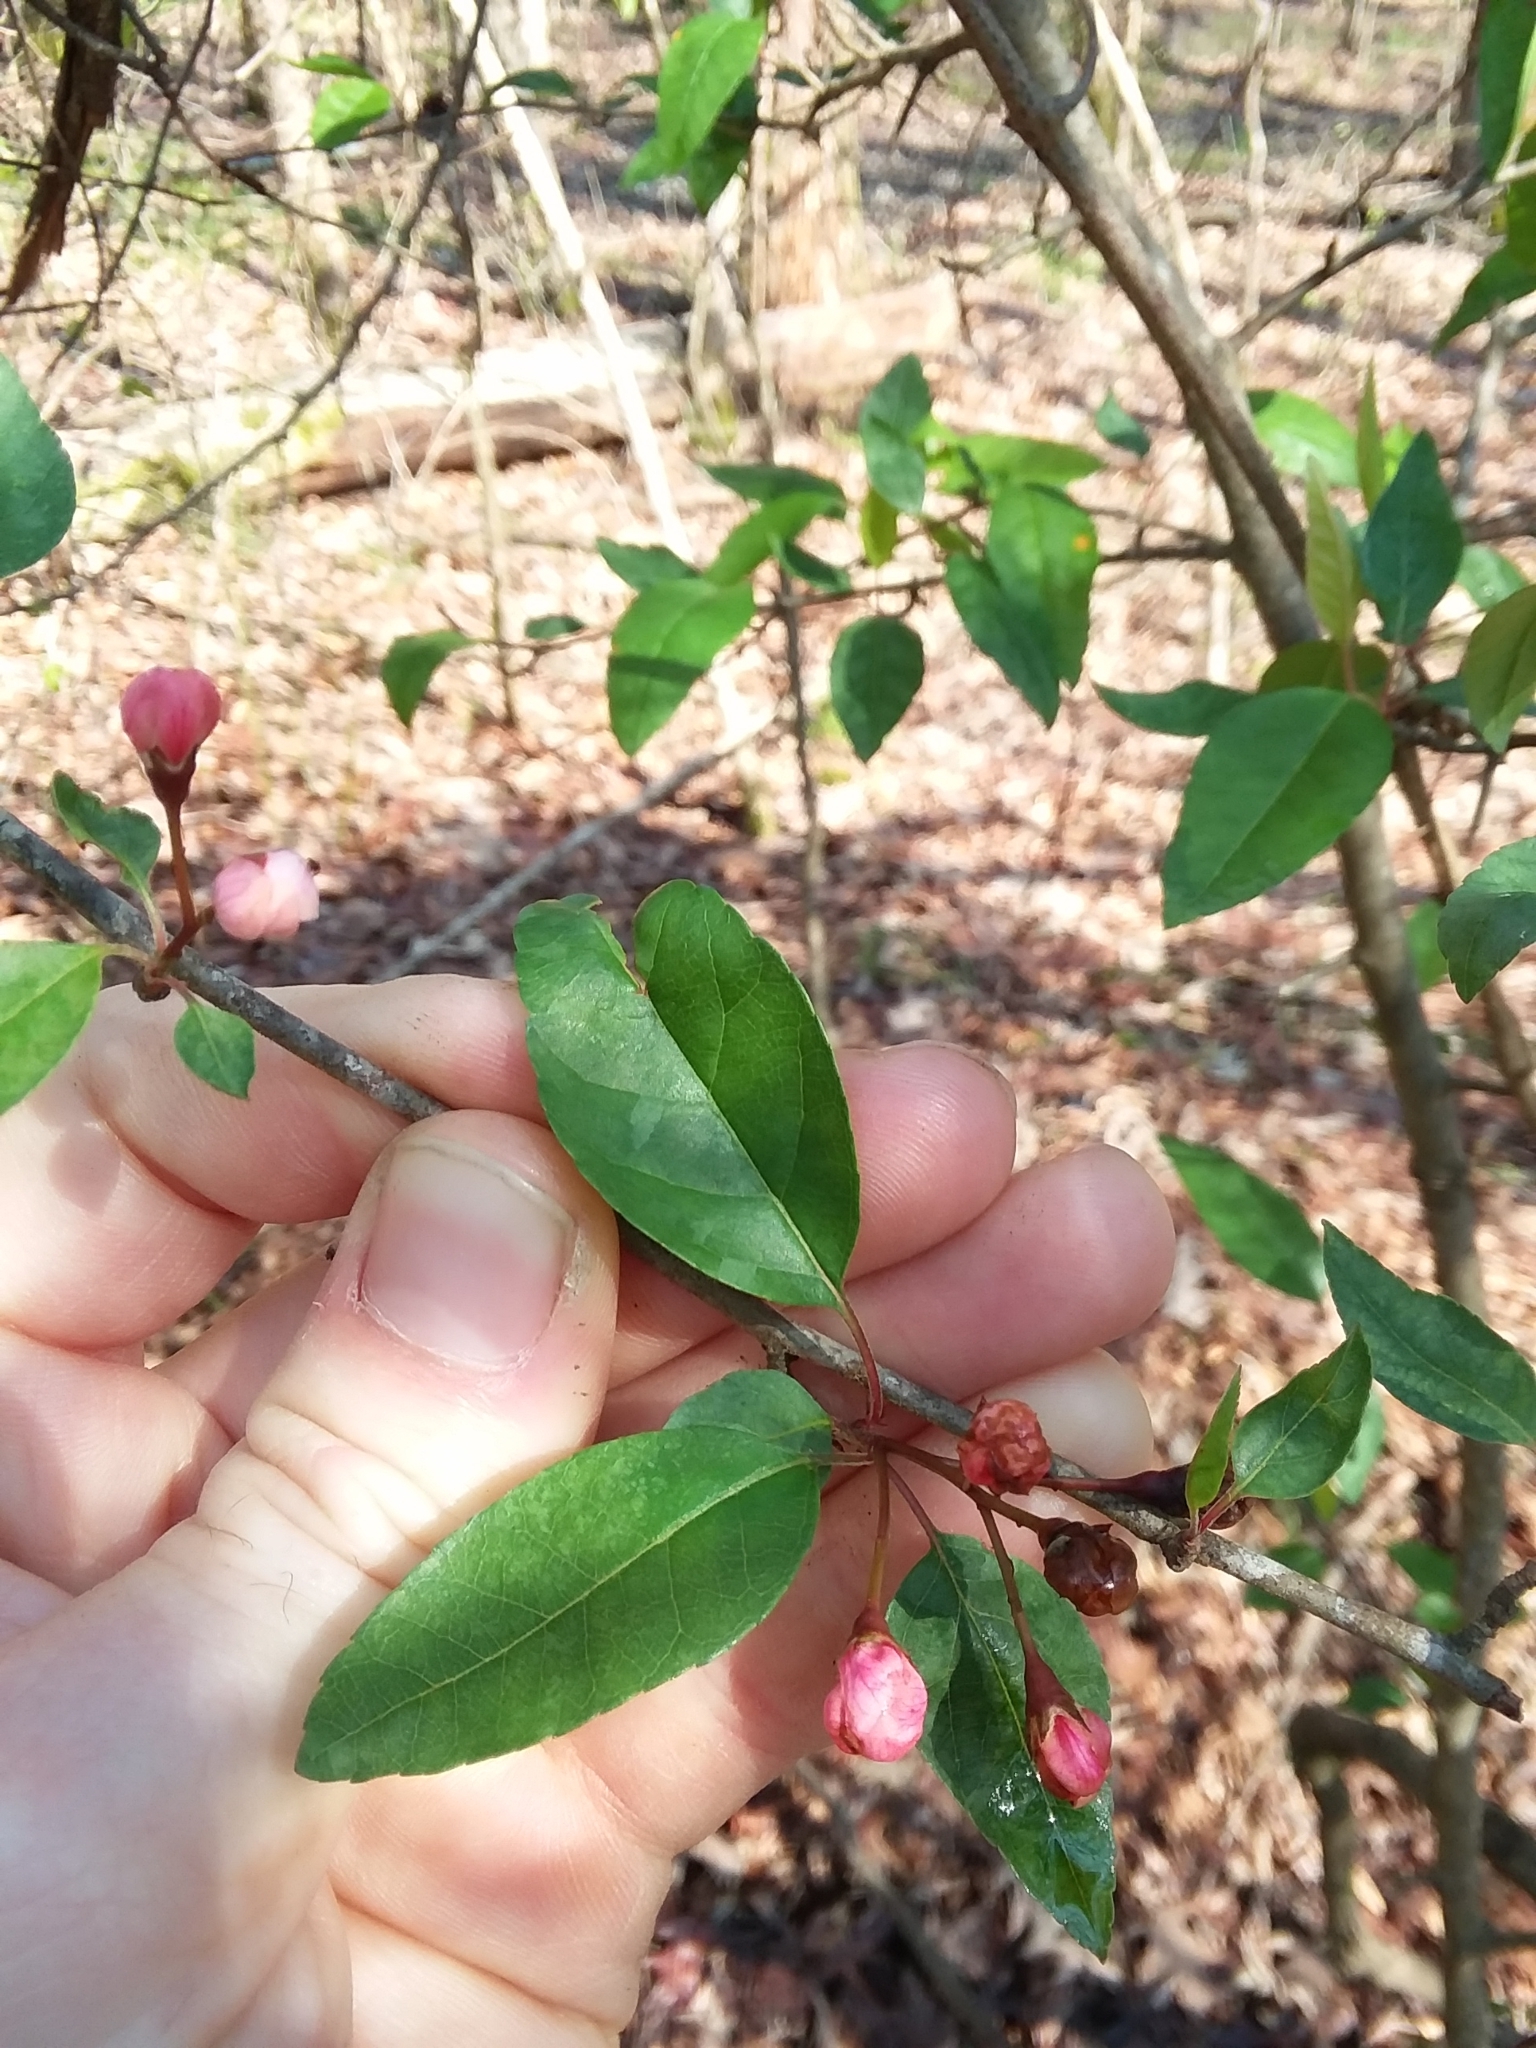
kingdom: Plantae
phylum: Tracheophyta
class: Magnoliopsida
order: Rosales
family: Rosaceae
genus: Malus
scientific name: Malus angustifolia
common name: Southern crab apple
